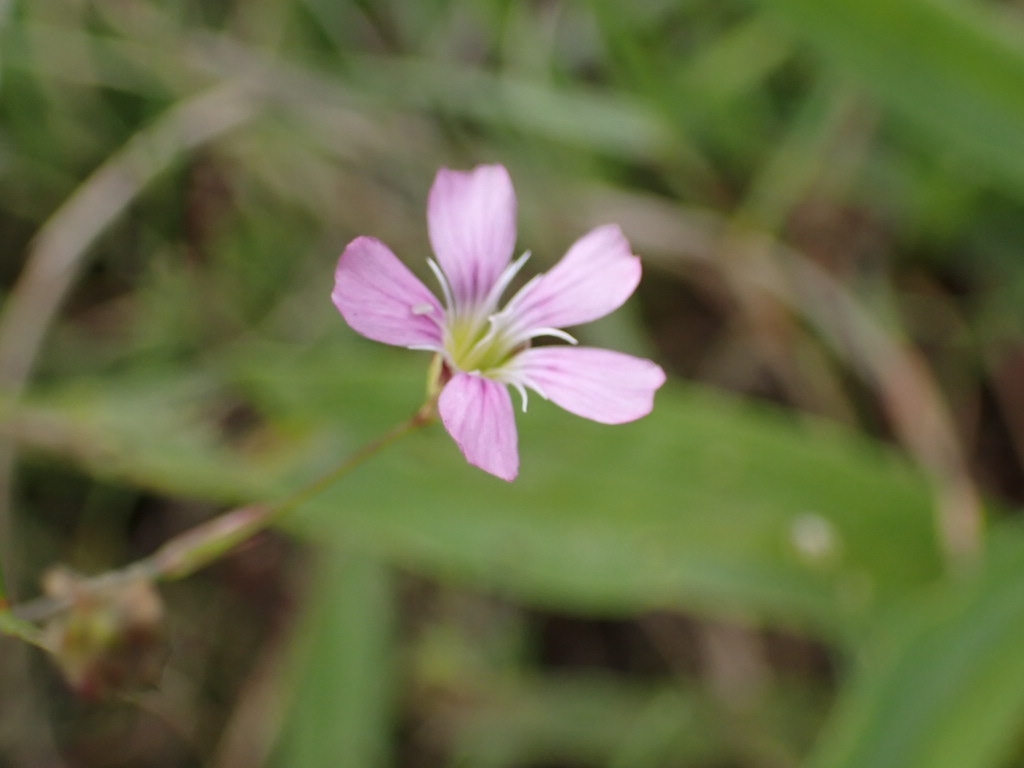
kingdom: Plantae
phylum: Tracheophyta
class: Magnoliopsida
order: Caryophyllales
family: Caryophyllaceae
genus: Petrorhagia
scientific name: Petrorhagia saxifraga
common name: Tunicflower
